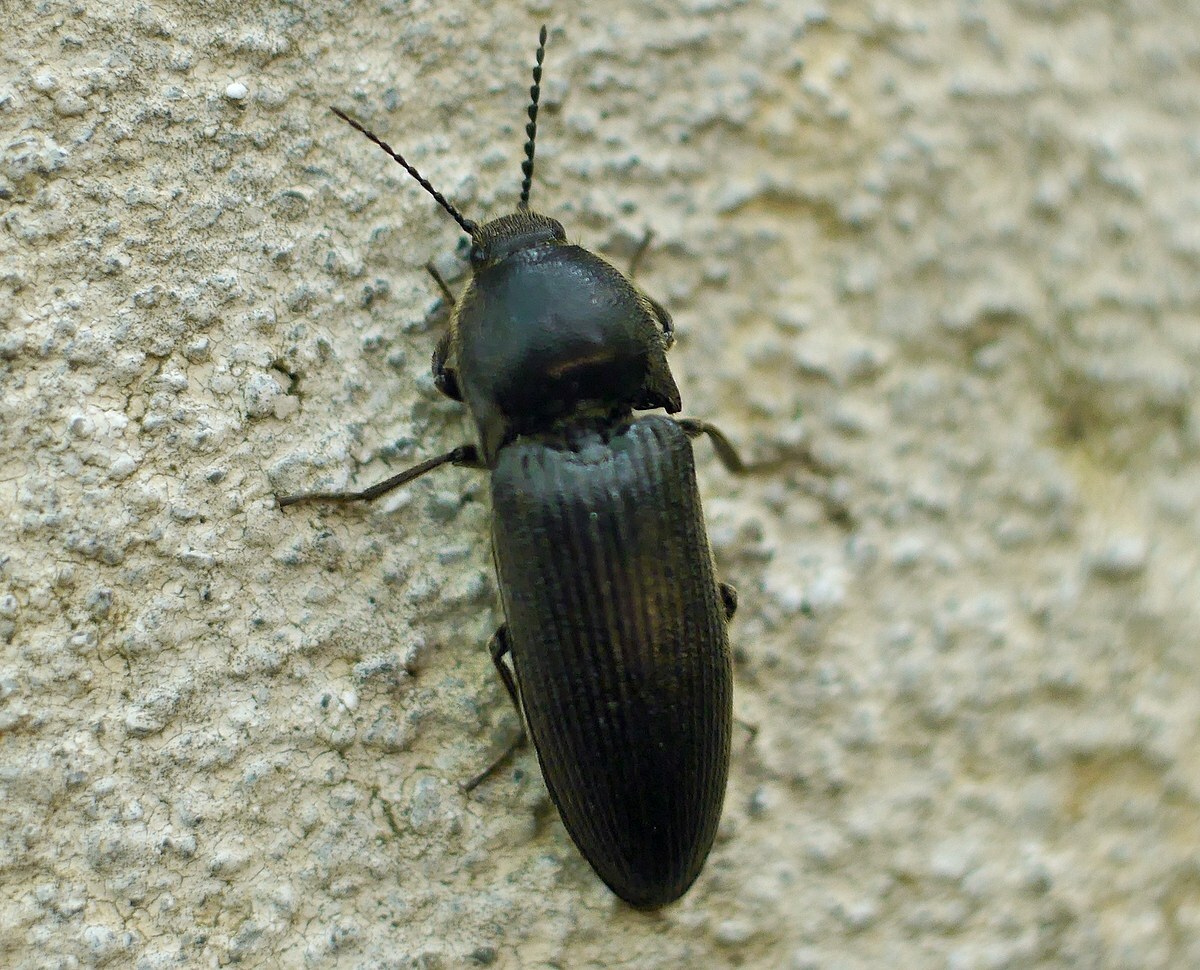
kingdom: Animalia
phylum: Arthropoda
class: Insecta
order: Coleoptera
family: Elateridae
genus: Melanotus
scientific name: Melanotus punctolineatus
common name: Sandwich click beetle
